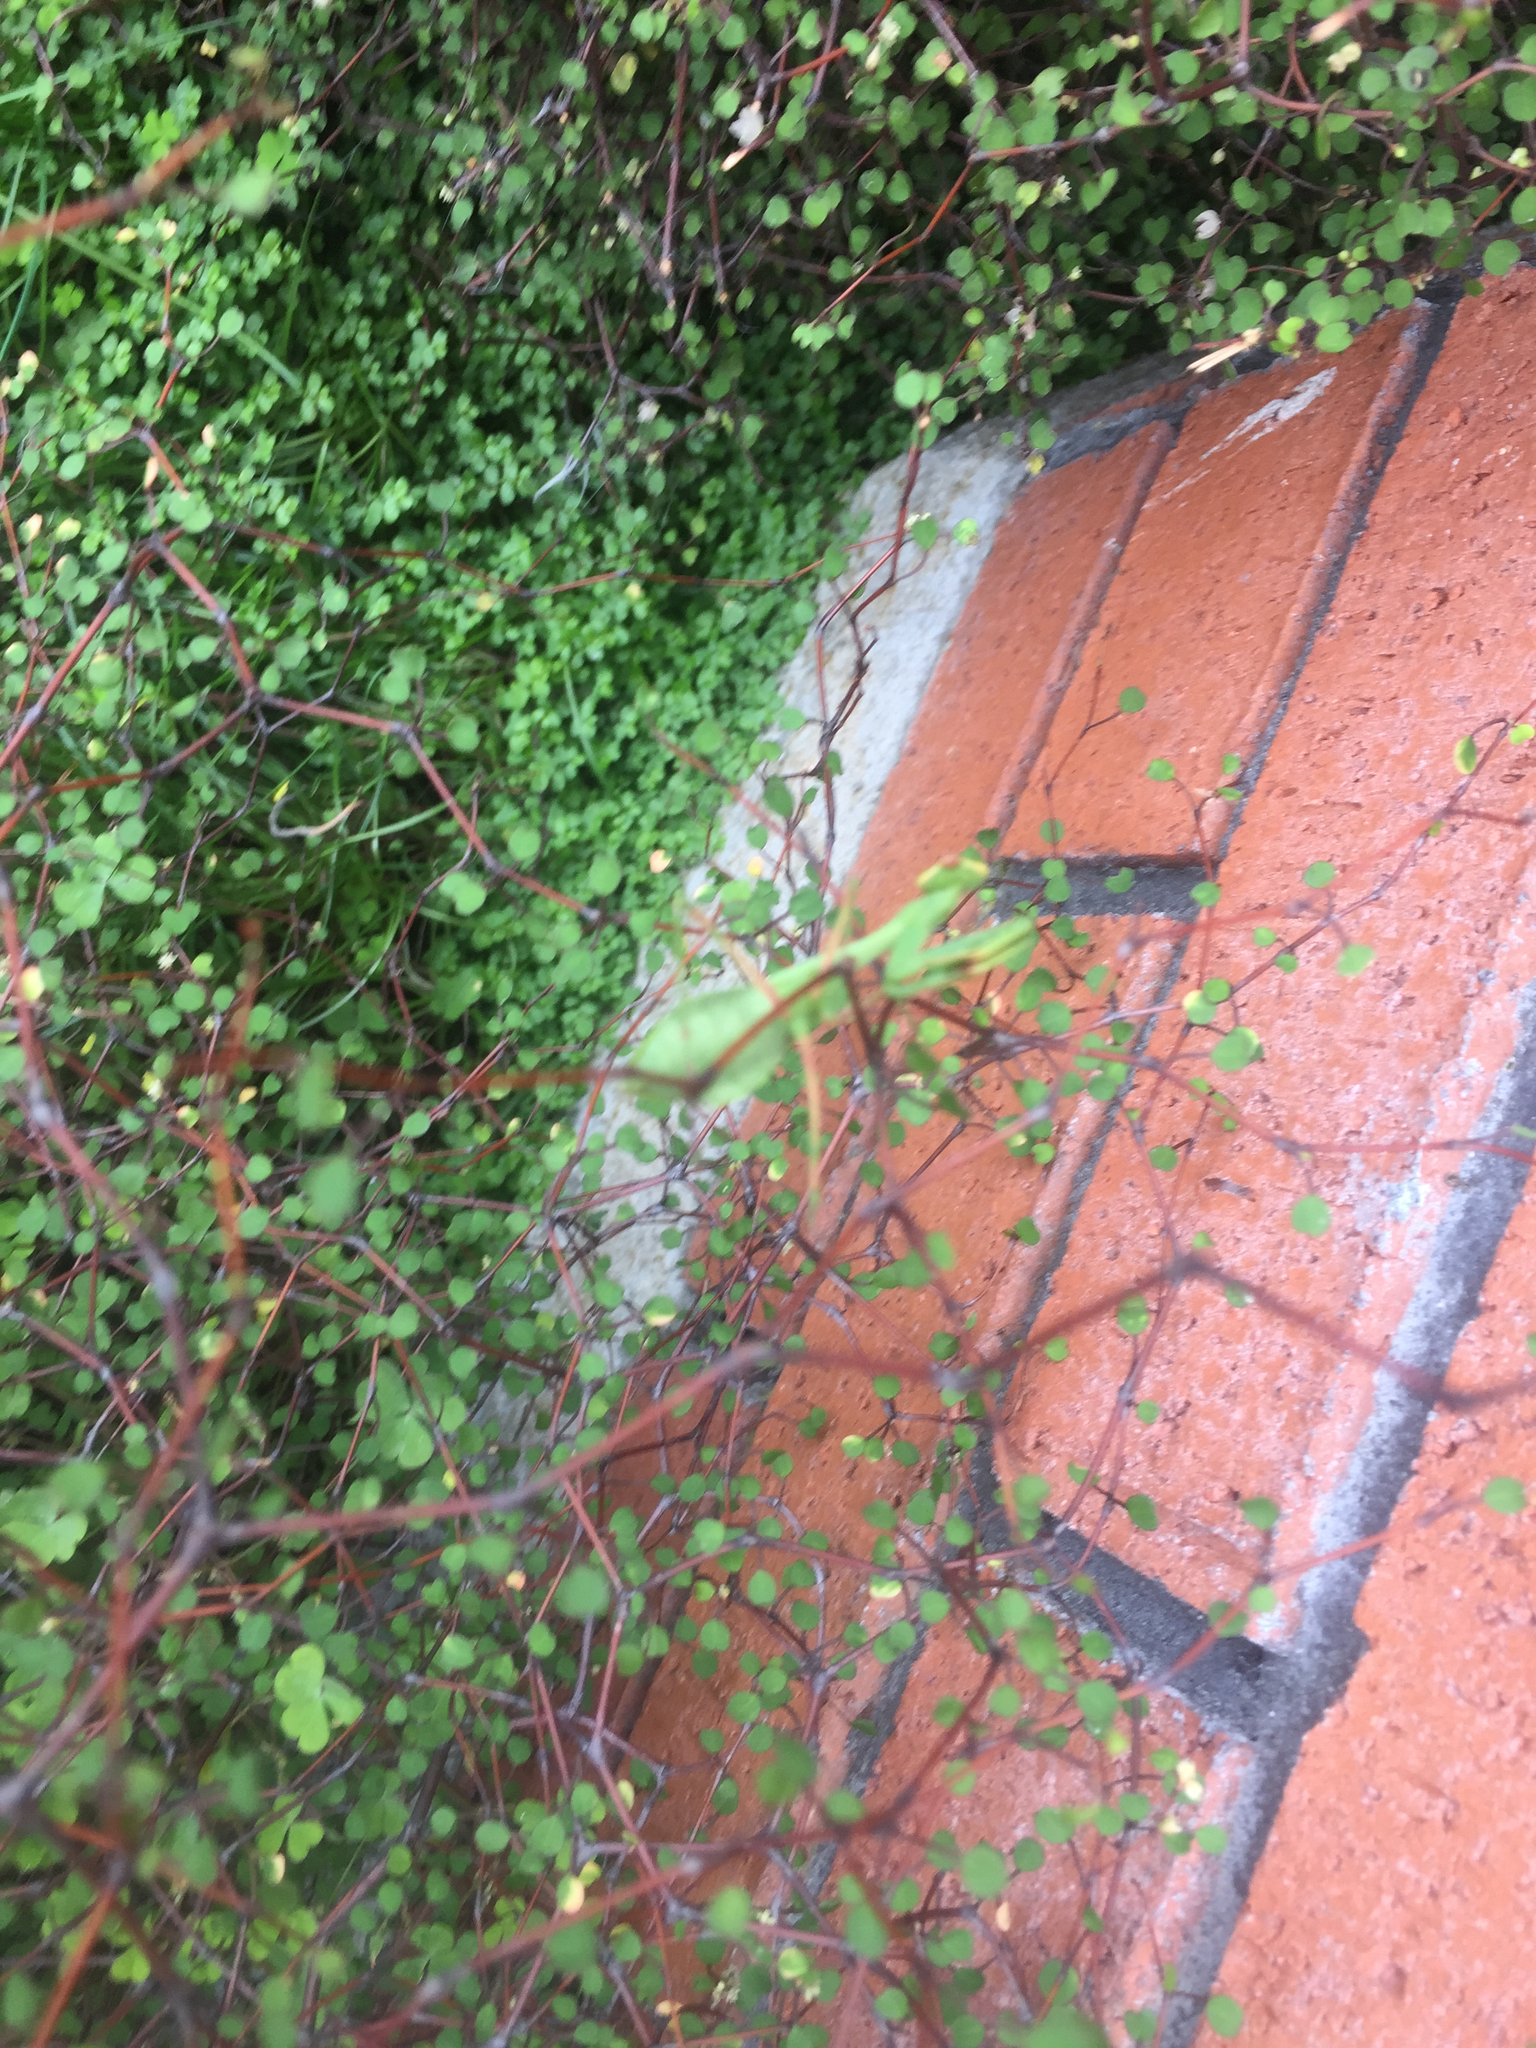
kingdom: Animalia
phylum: Arthropoda
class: Insecta
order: Mantodea
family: Miomantidae
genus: Miomantis
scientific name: Miomantis caffra
